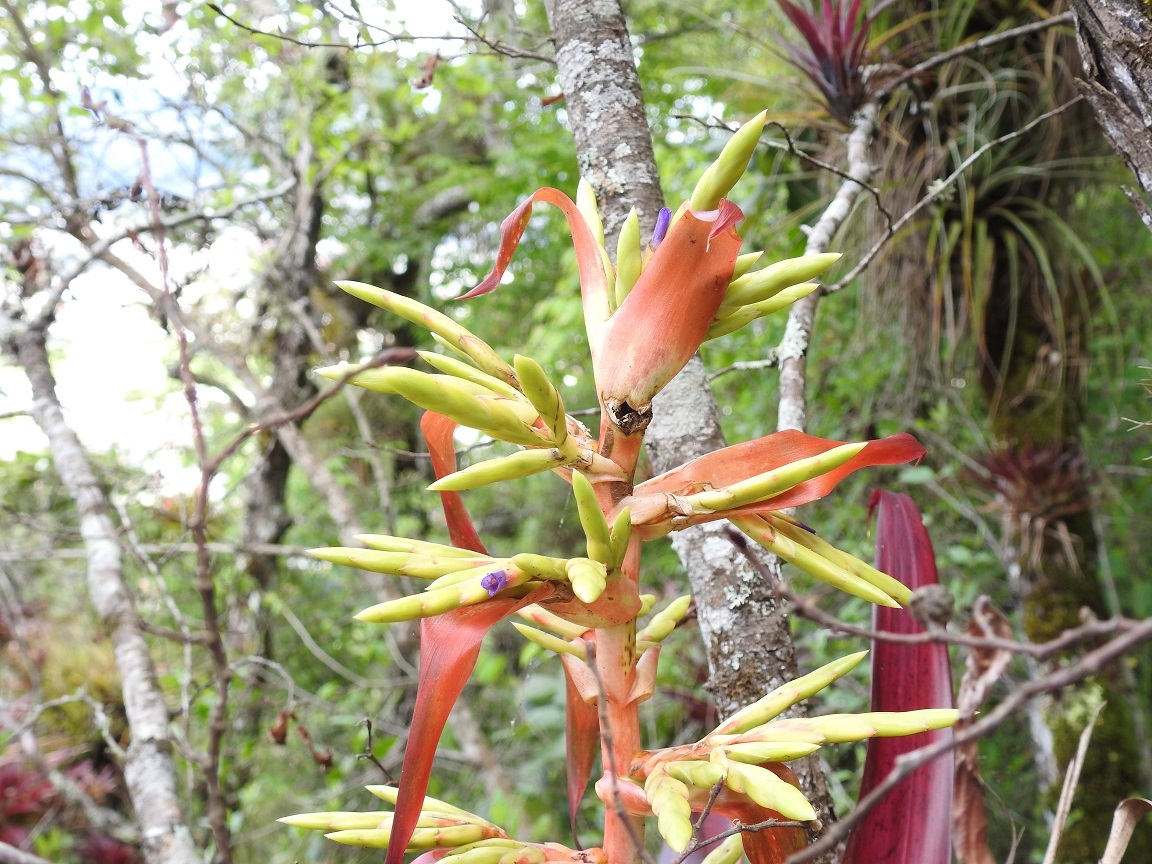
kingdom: Plantae
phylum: Tracheophyta
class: Liliopsida
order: Poales
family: Bromeliaceae
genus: Tillandsia
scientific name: Tillandsia guatemalensis
